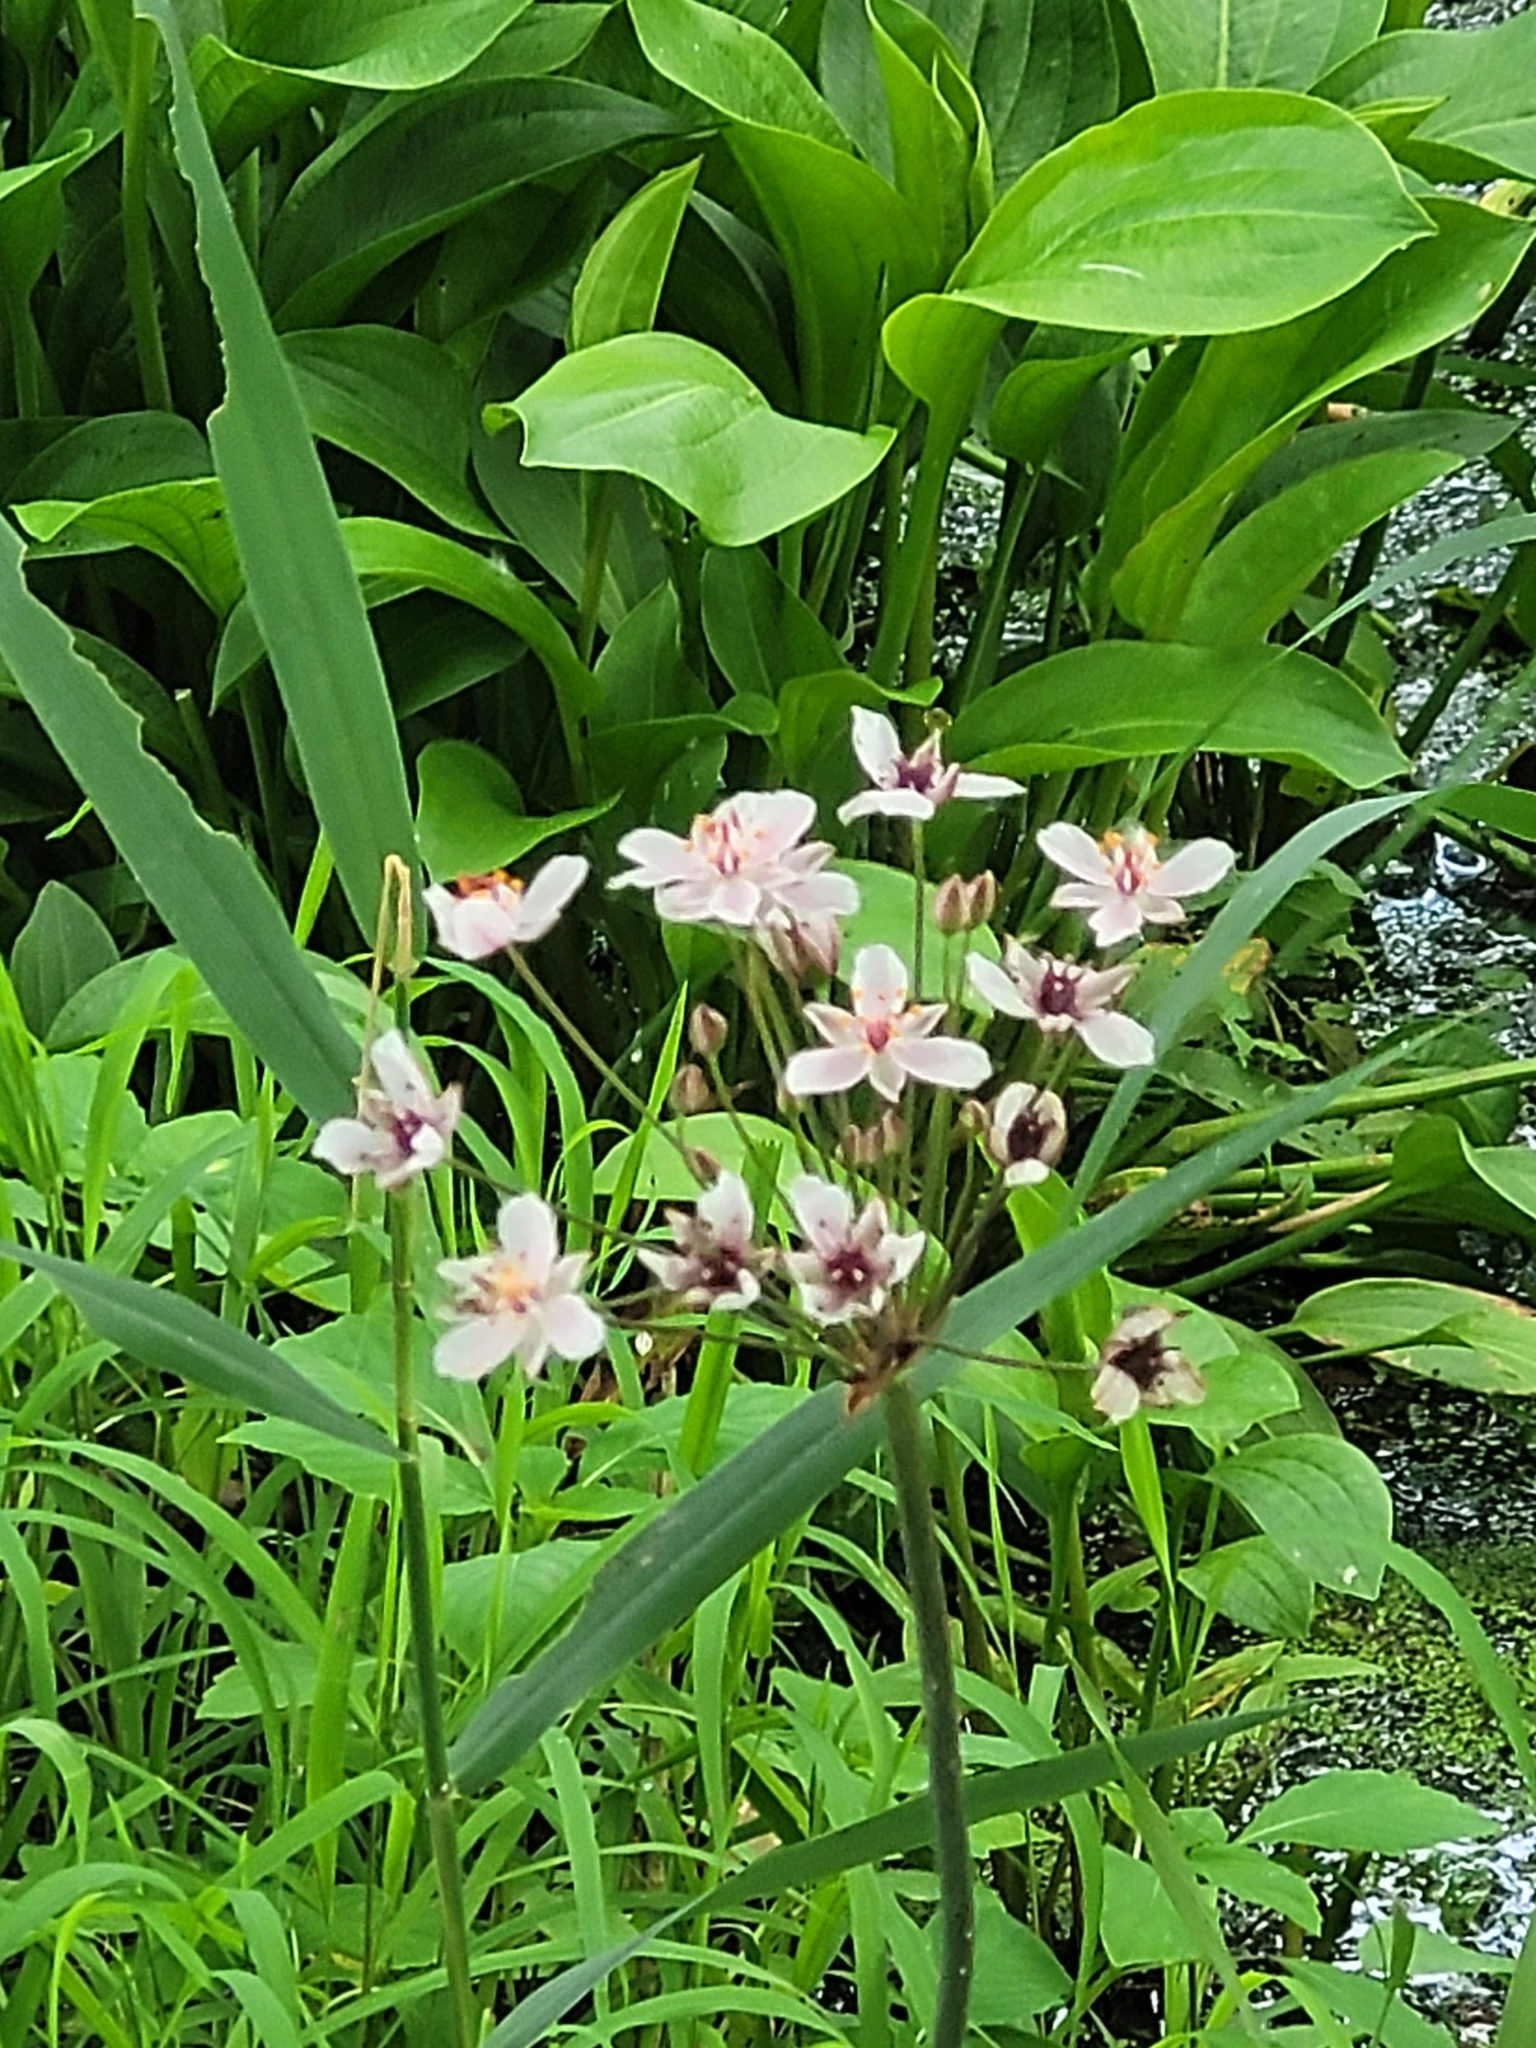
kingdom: Plantae
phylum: Tracheophyta
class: Liliopsida
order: Alismatales
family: Butomaceae
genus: Butomus
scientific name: Butomus umbellatus
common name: Flowering-rush
